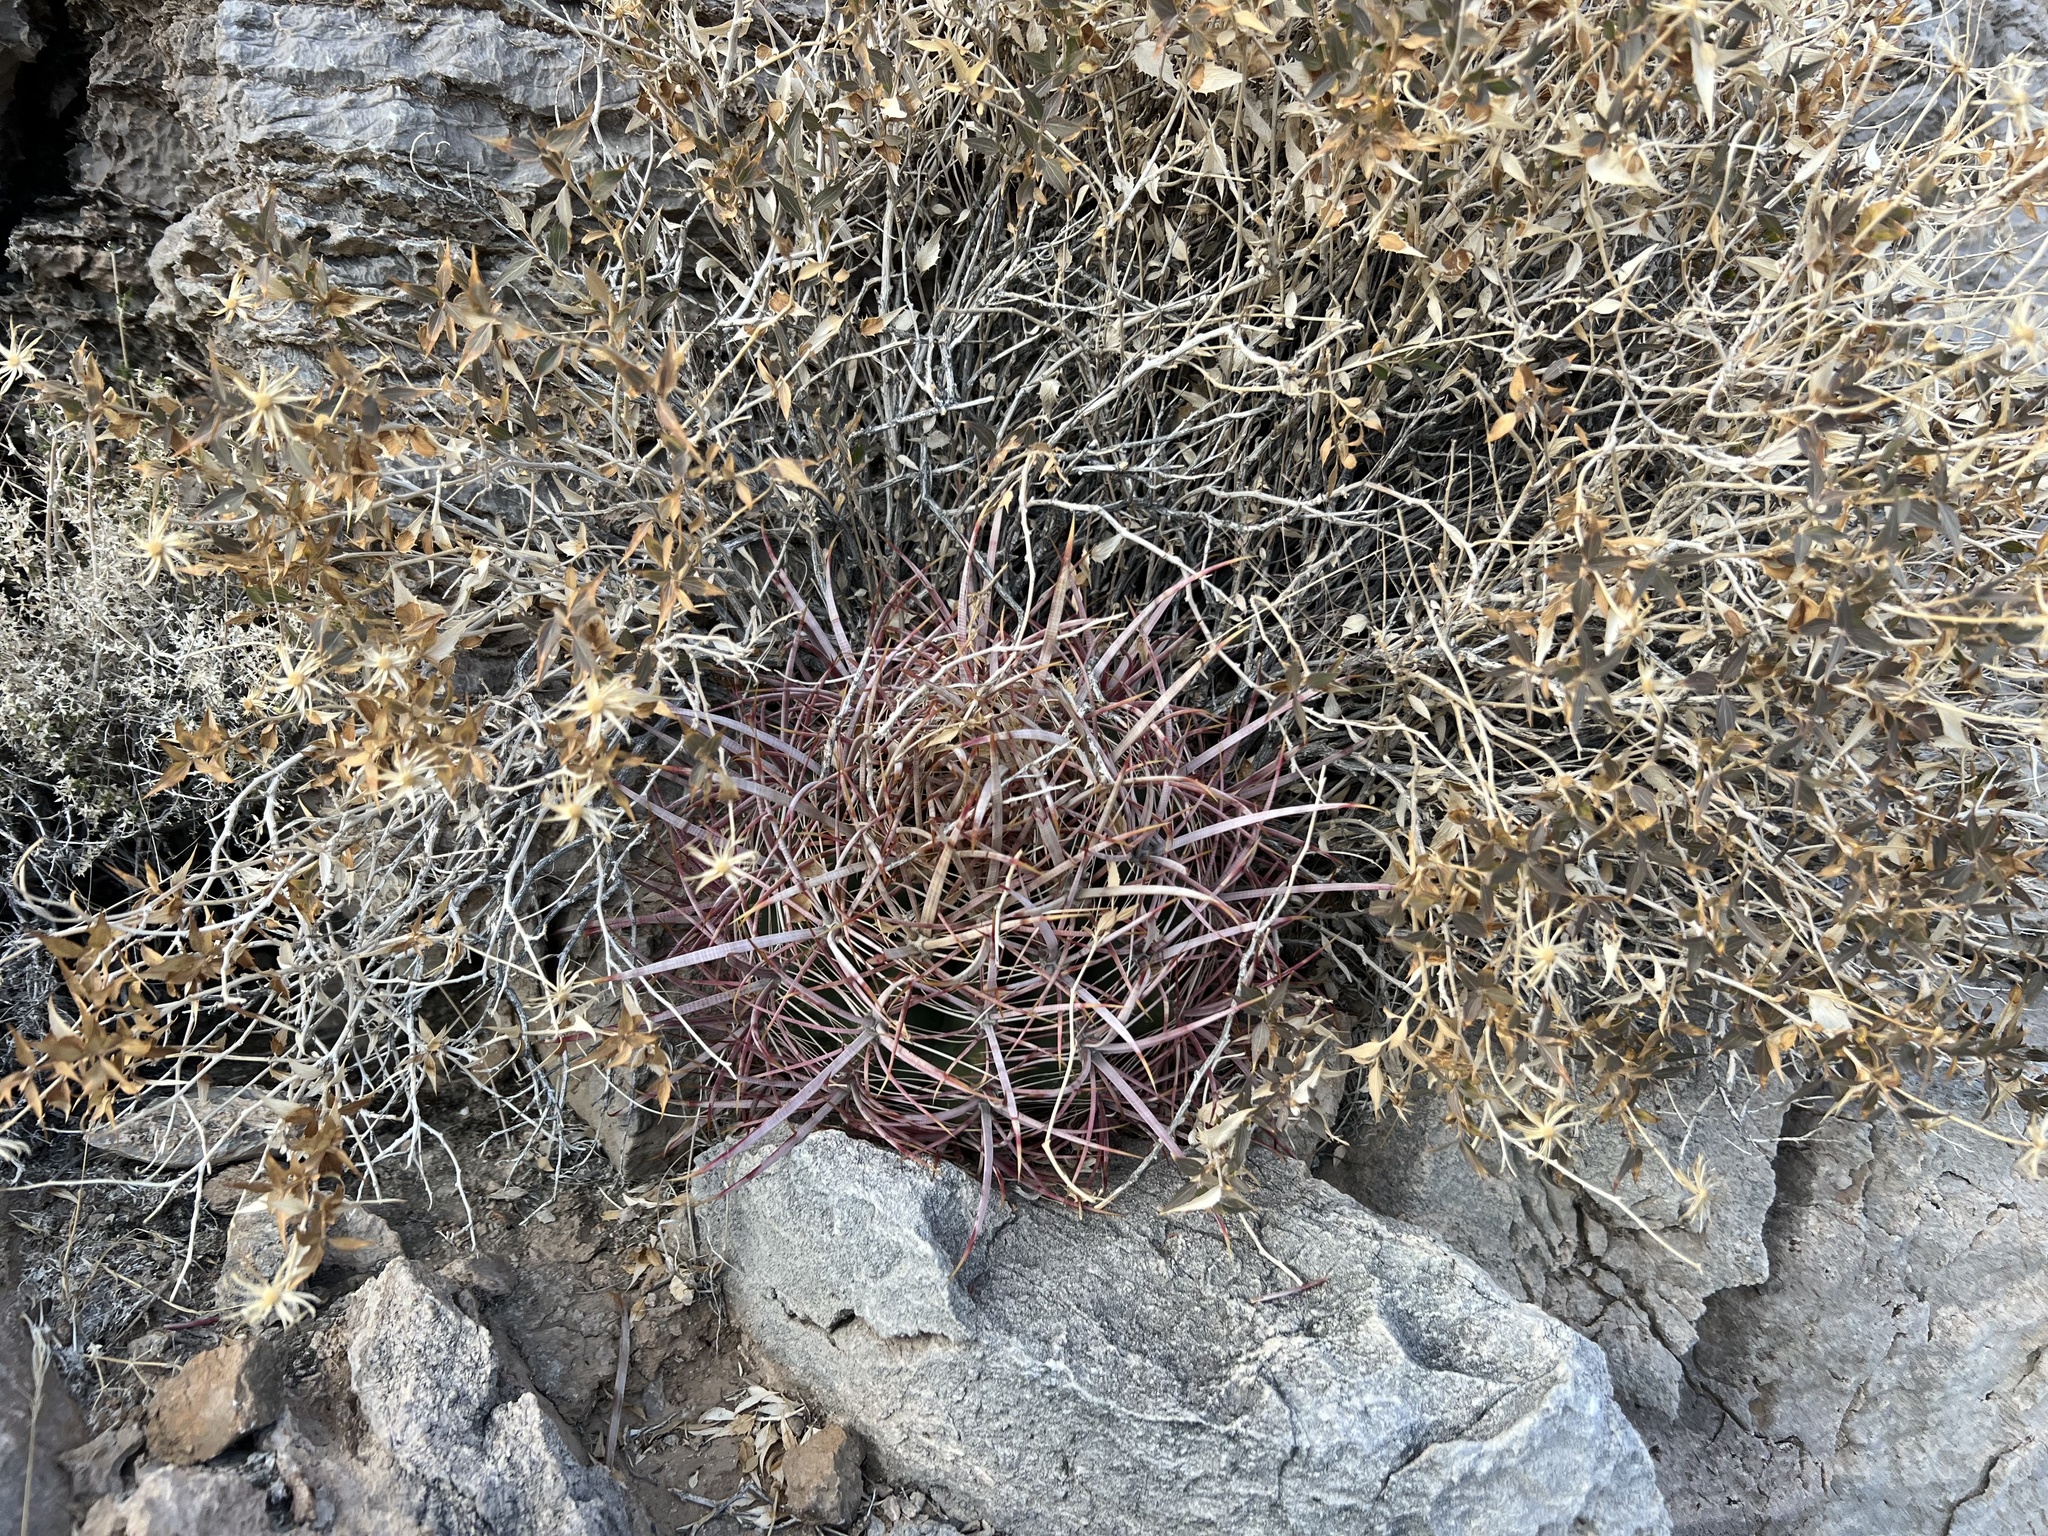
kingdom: Plantae
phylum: Tracheophyta
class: Magnoliopsida
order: Caryophyllales
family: Cactaceae
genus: Ferocactus
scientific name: Ferocactus cylindraceus
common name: California barrel cactus
